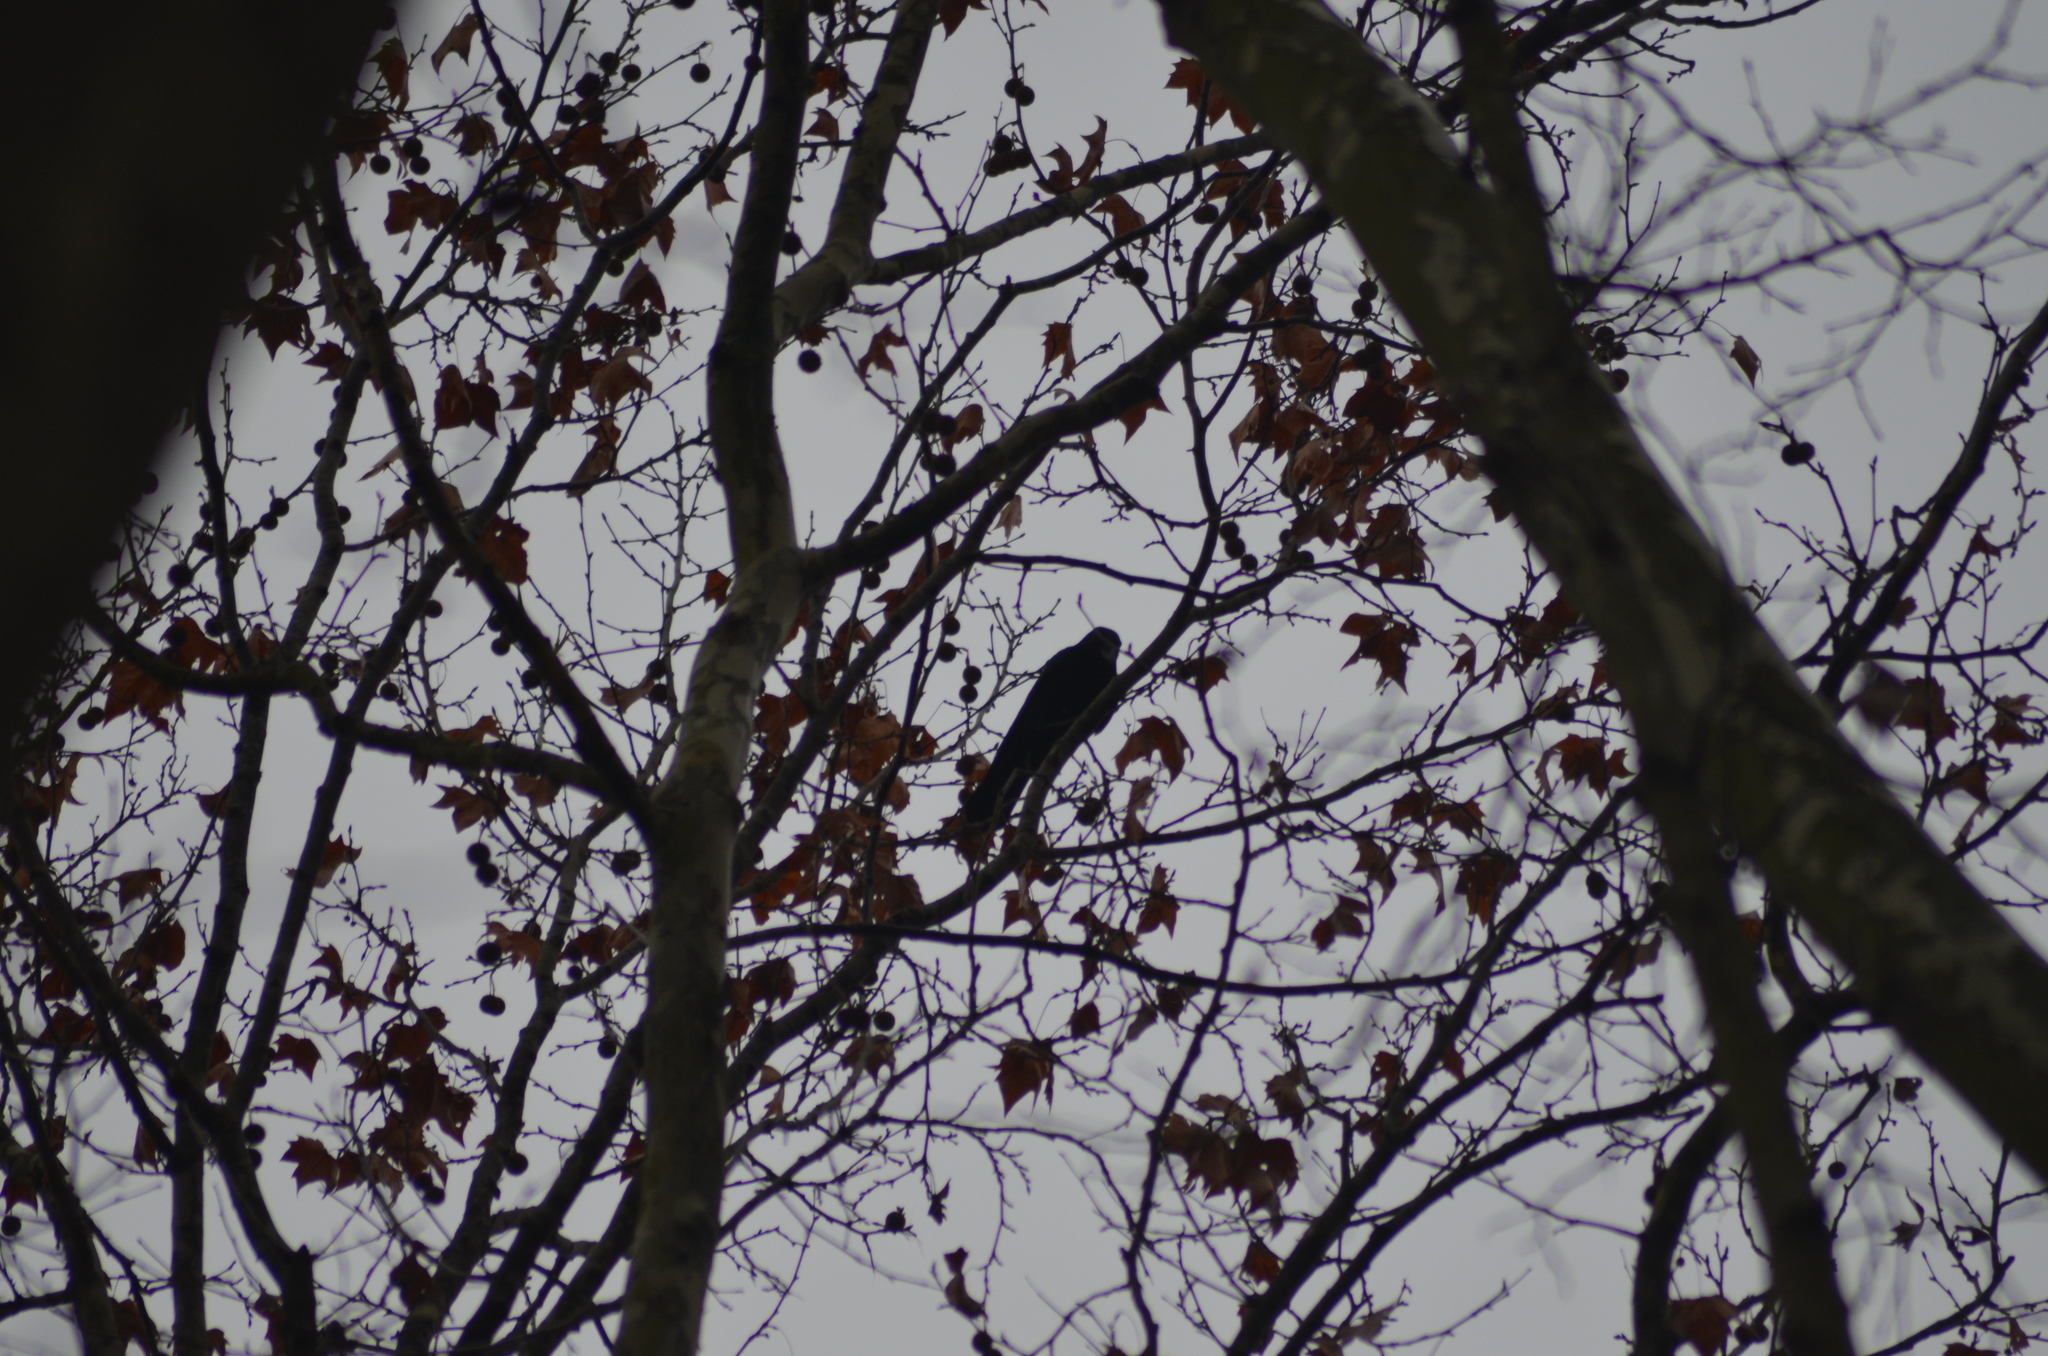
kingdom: Animalia
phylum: Chordata
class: Aves
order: Passeriformes
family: Corvidae
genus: Corvus
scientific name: Corvus corone
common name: Carrion crow
